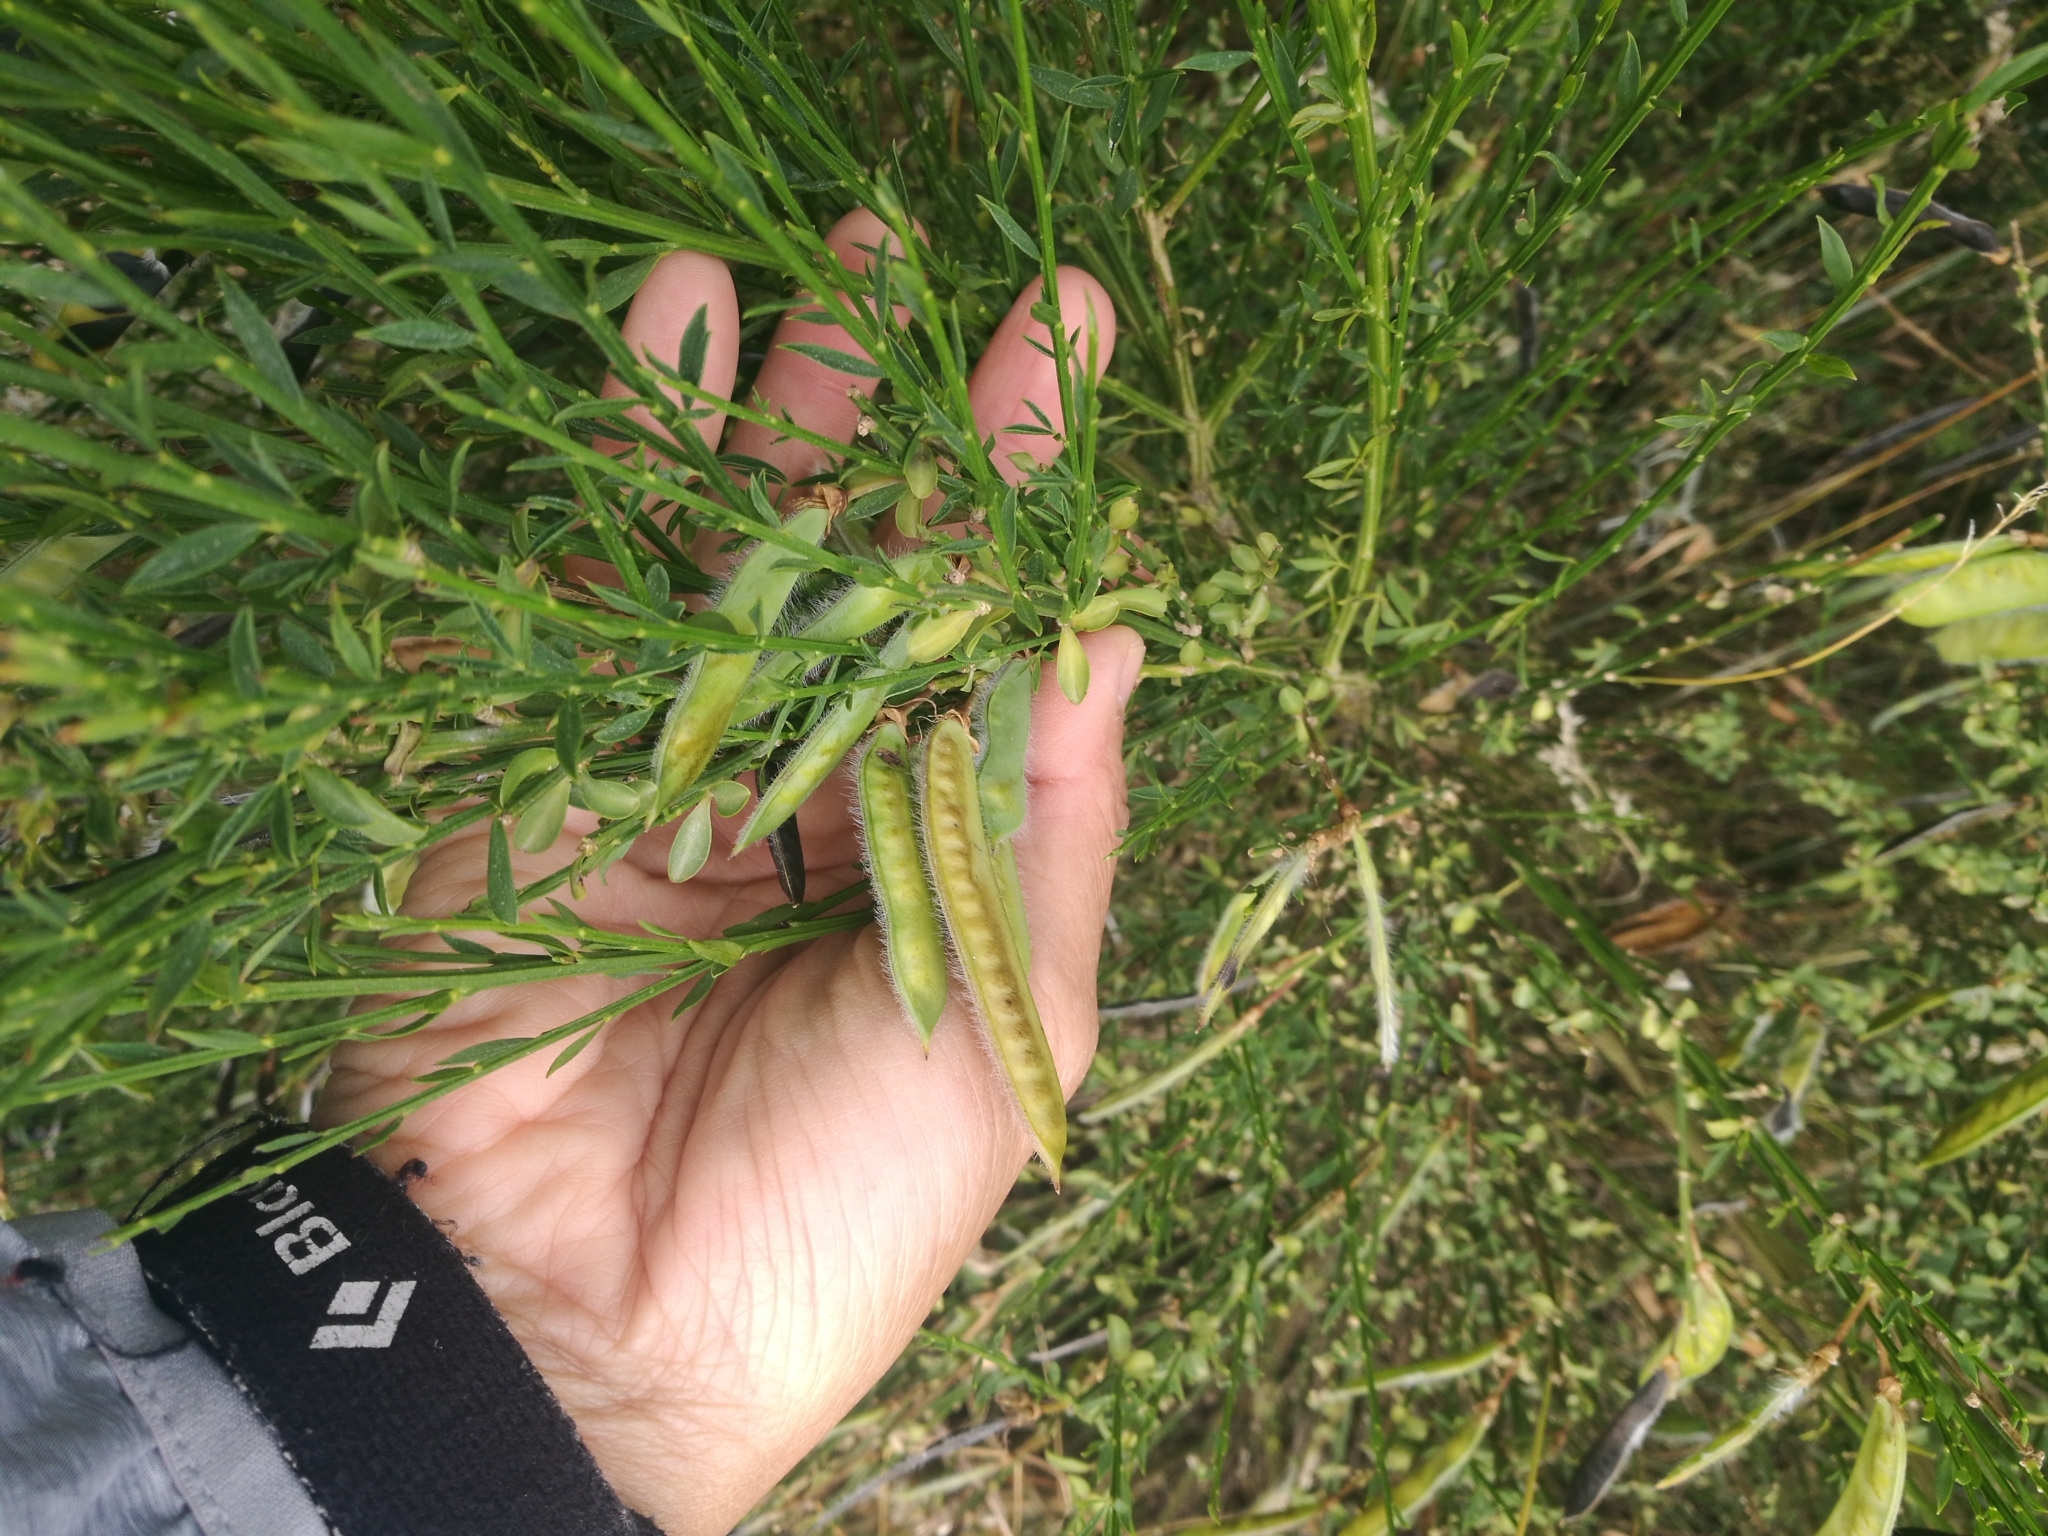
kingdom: Plantae
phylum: Tracheophyta
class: Magnoliopsida
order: Fabales
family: Fabaceae
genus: Cytisus
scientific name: Cytisus scoparius
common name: Scotch broom
